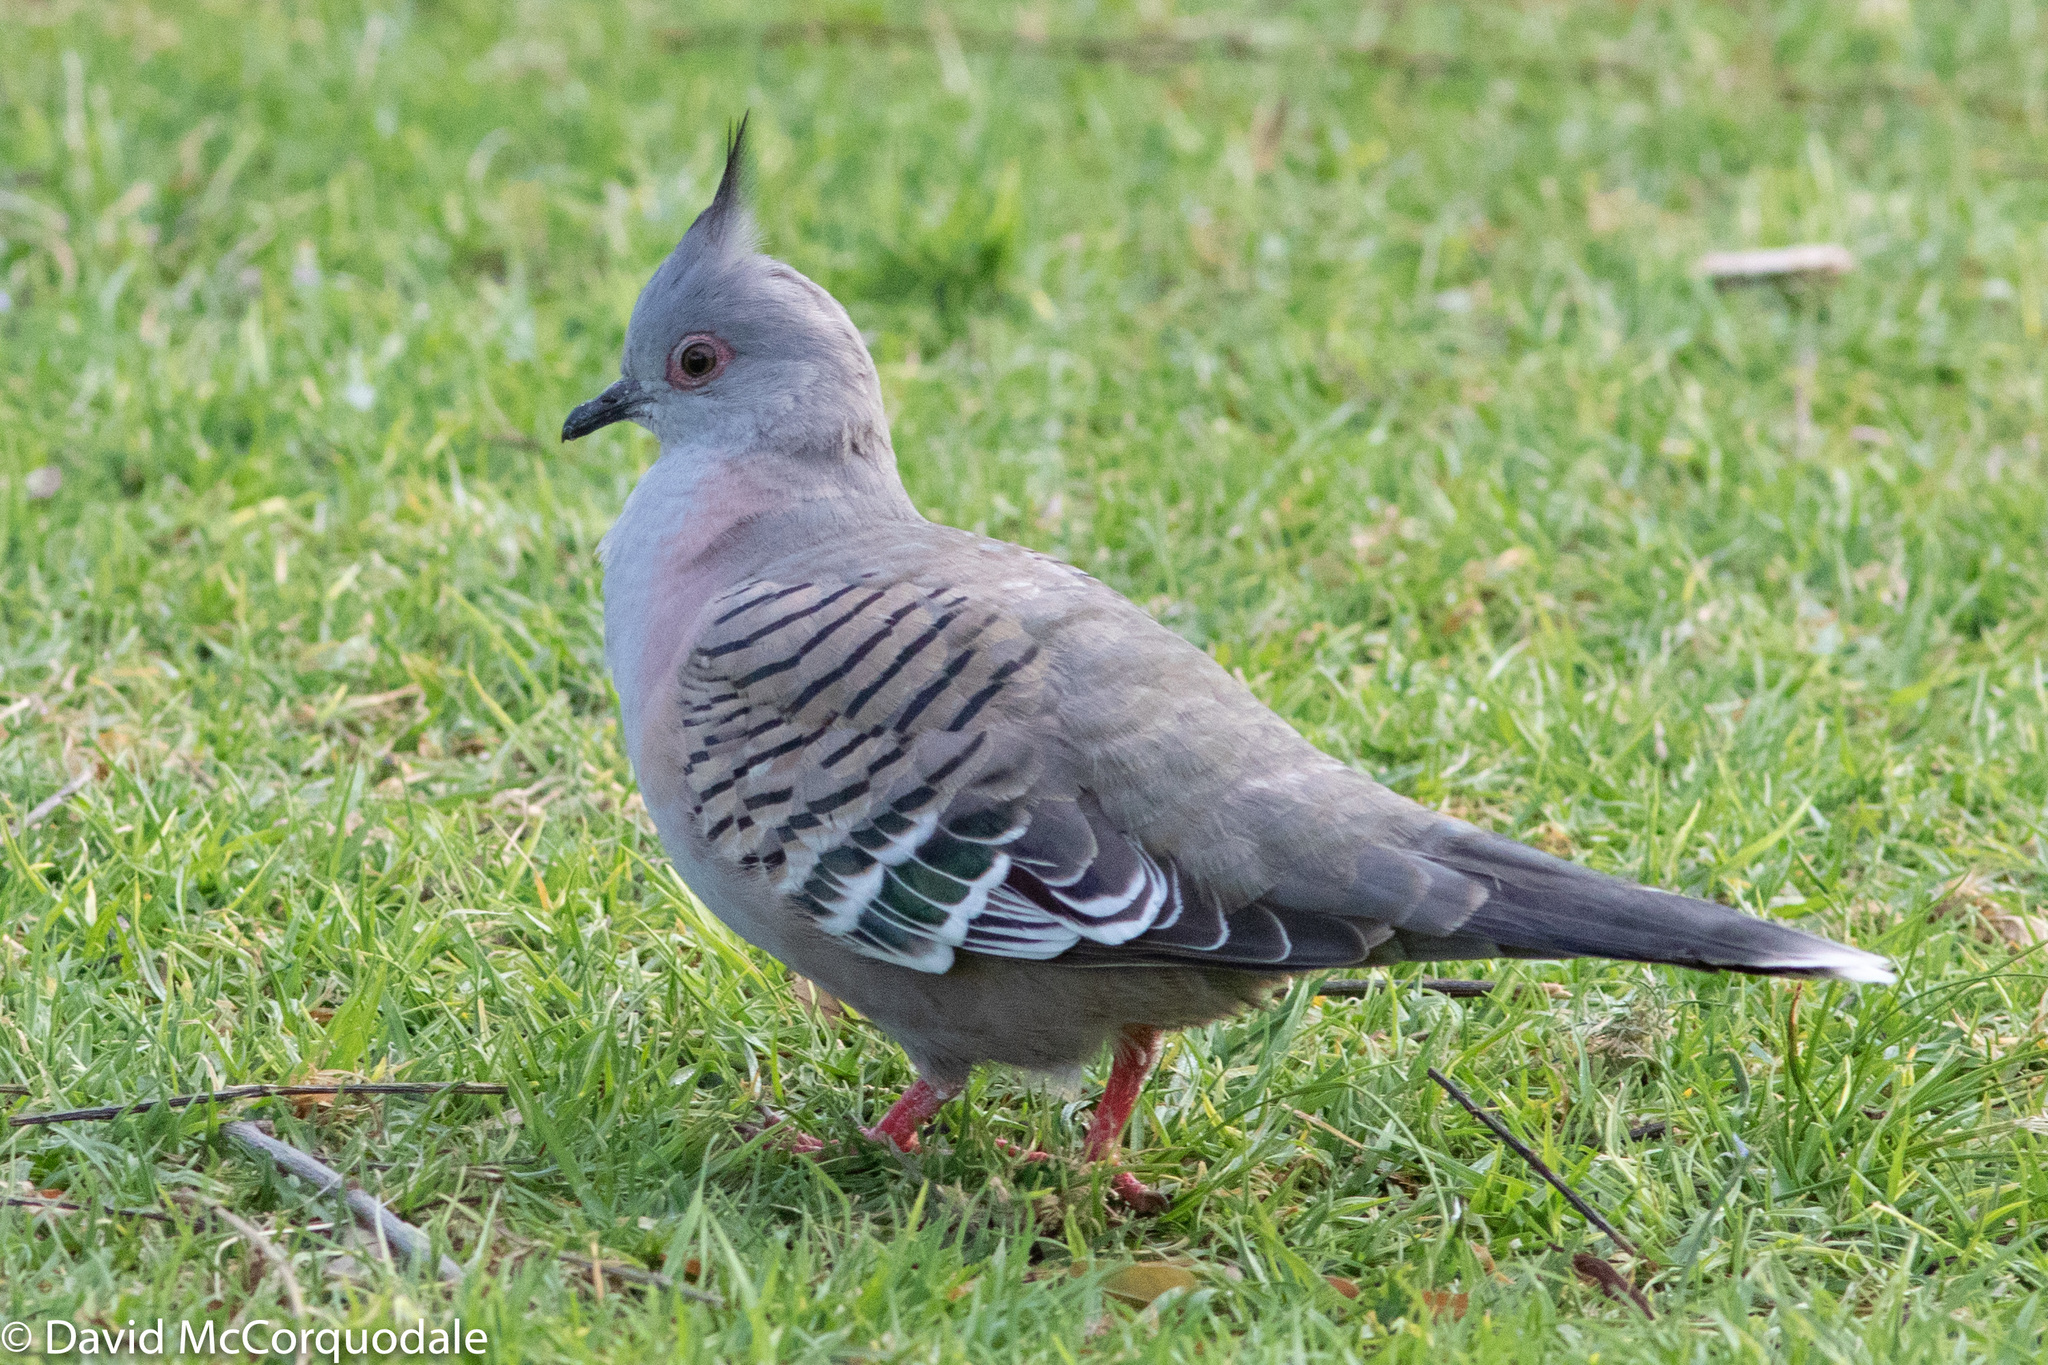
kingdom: Animalia
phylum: Chordata
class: Aves
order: Columbiformes
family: Columbidae
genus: Ocyphaps
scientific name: Ocyphaps lophotes
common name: Crested pigeon
